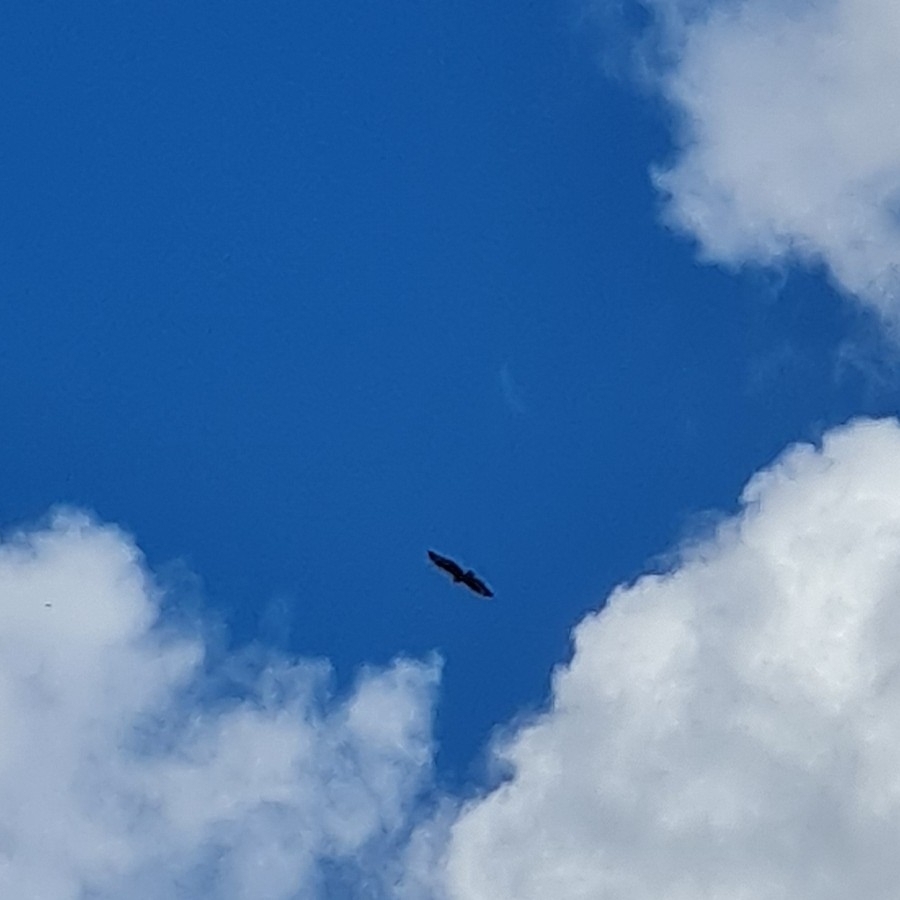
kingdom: Animalia
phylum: Chordata
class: Aves
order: Accipitriformes
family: Accipitridae
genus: Buteo
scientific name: Buteo buteo
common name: Common buzzard
